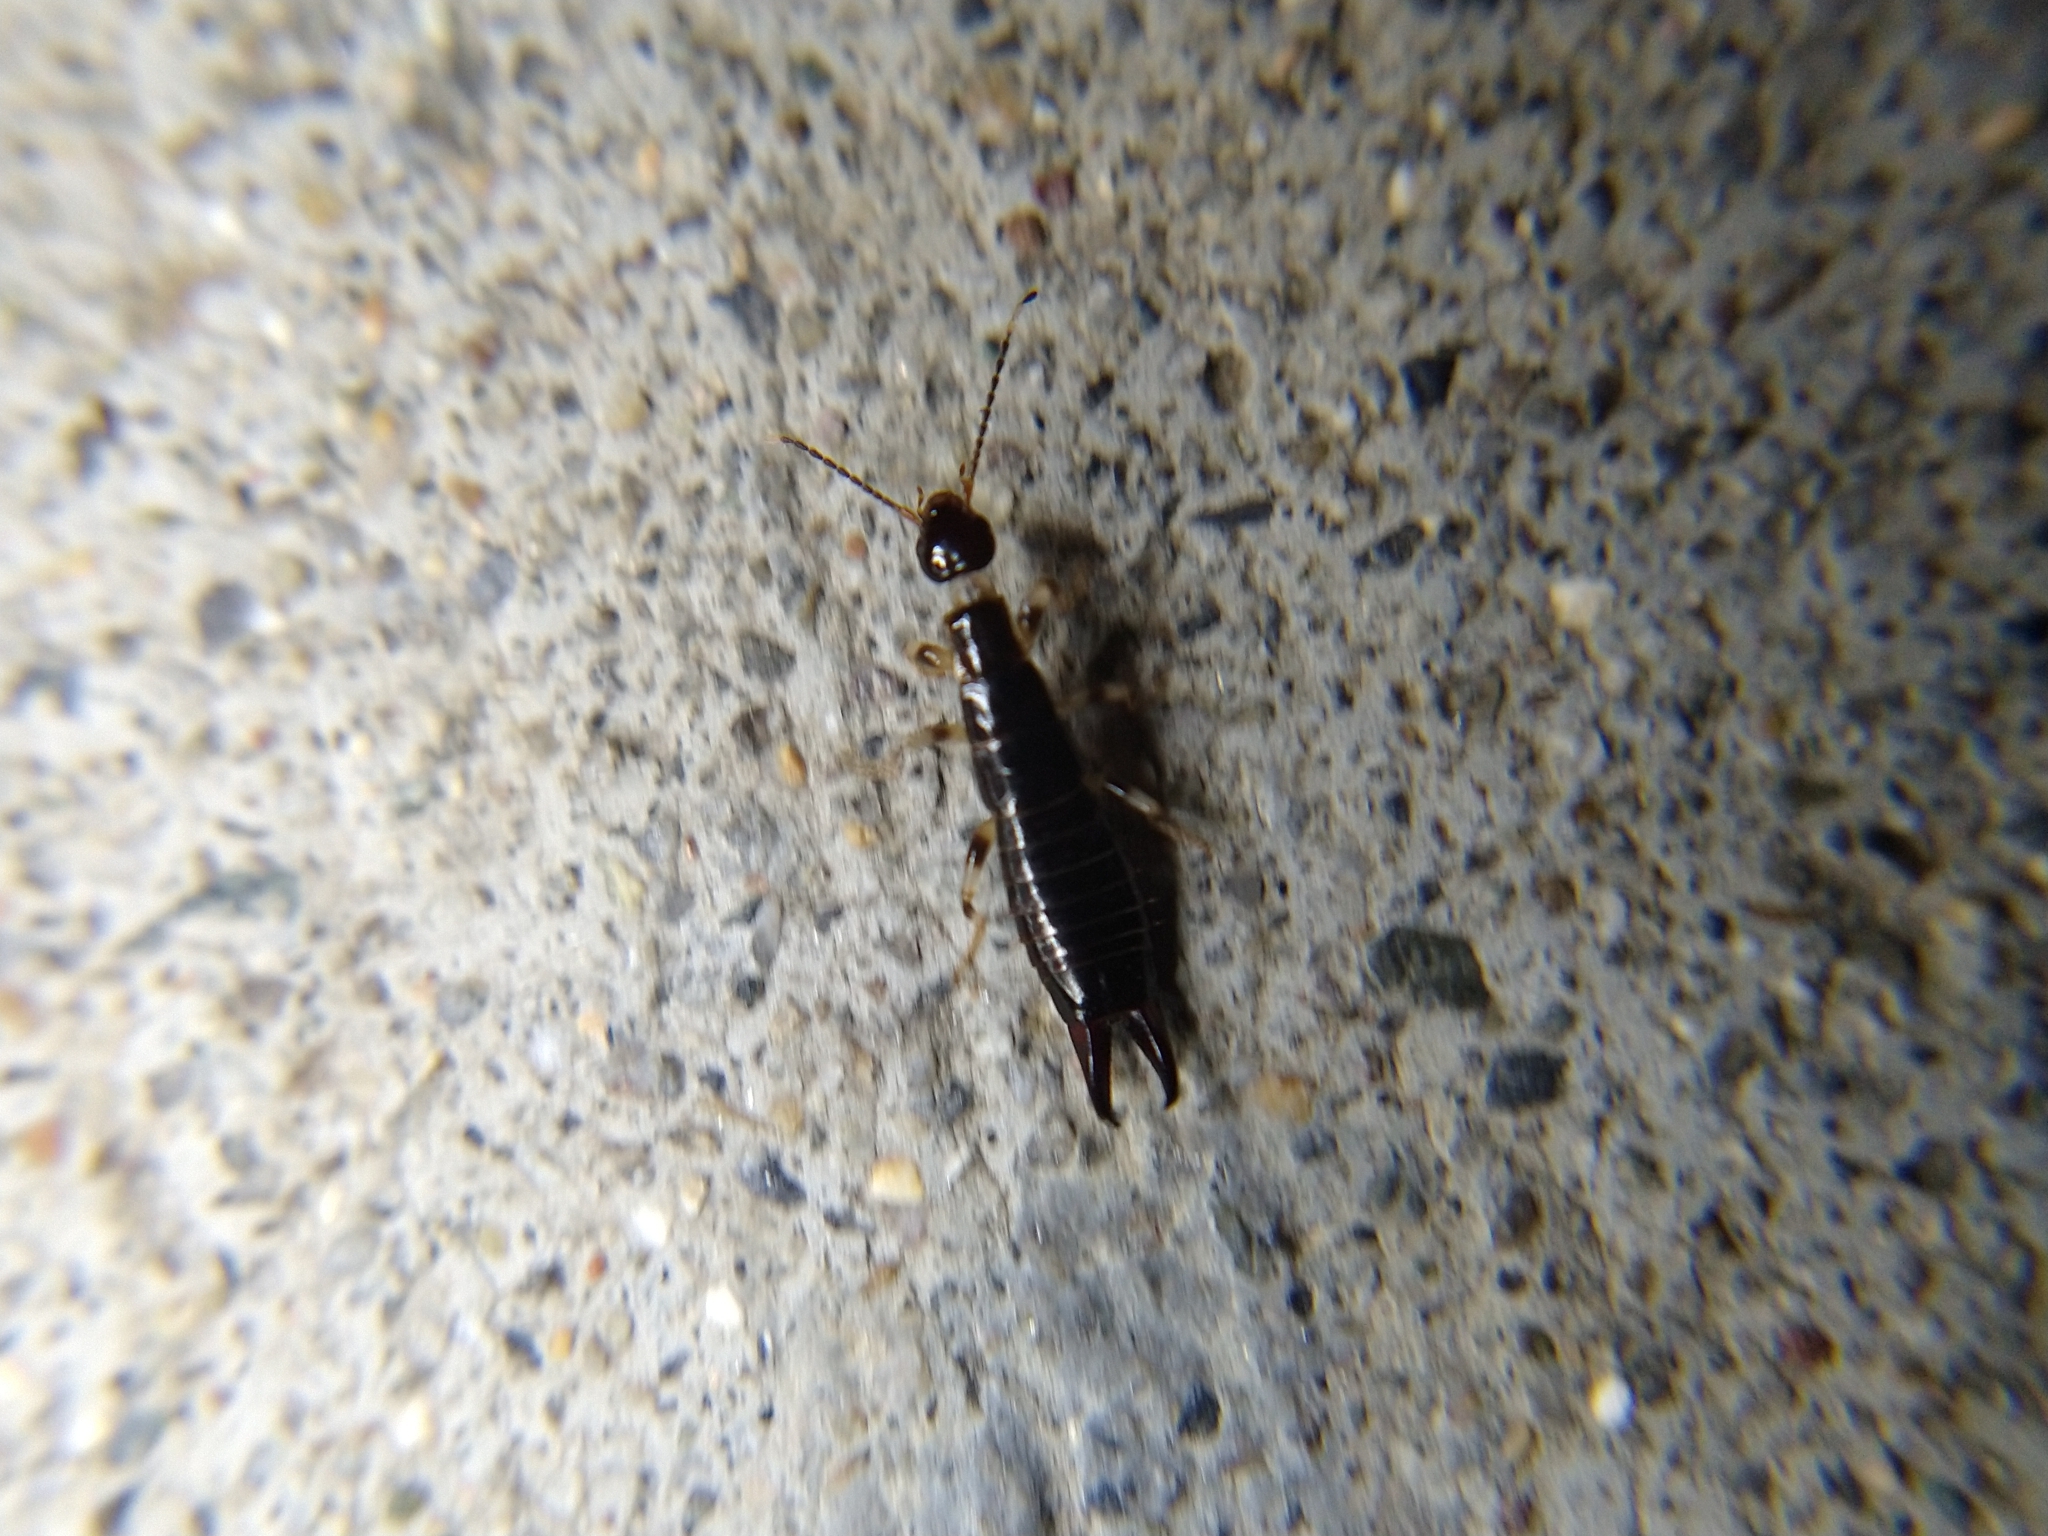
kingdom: Animalia
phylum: Arthropoda
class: Insecta
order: Dermaptera
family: Anisolabididae
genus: Euborellia
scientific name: Euborellia annulipes
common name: Ringlegged earwig
